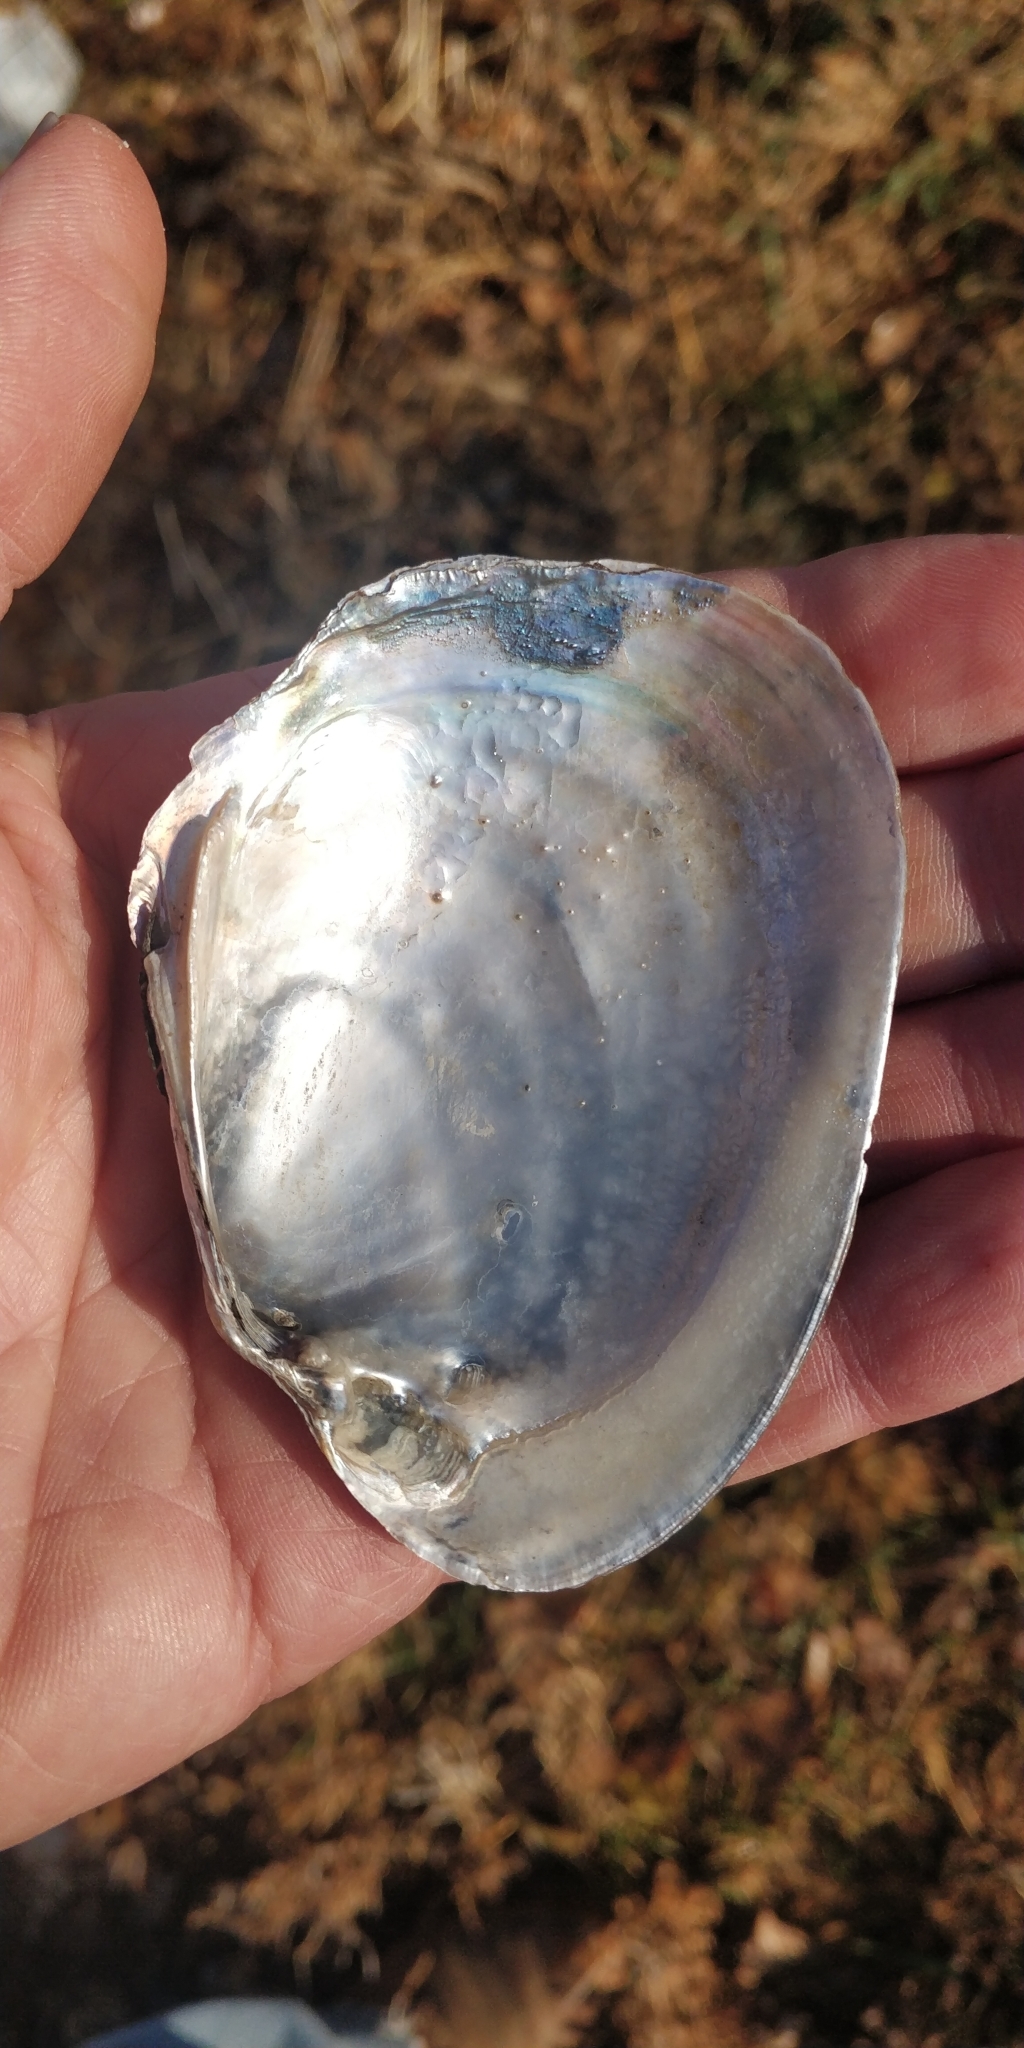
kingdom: Animalia
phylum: Mollusca
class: Bivalvia
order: Unionida
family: Unionidae
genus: Potamilus
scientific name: Potamilus alatus
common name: Pink heelsplitter
